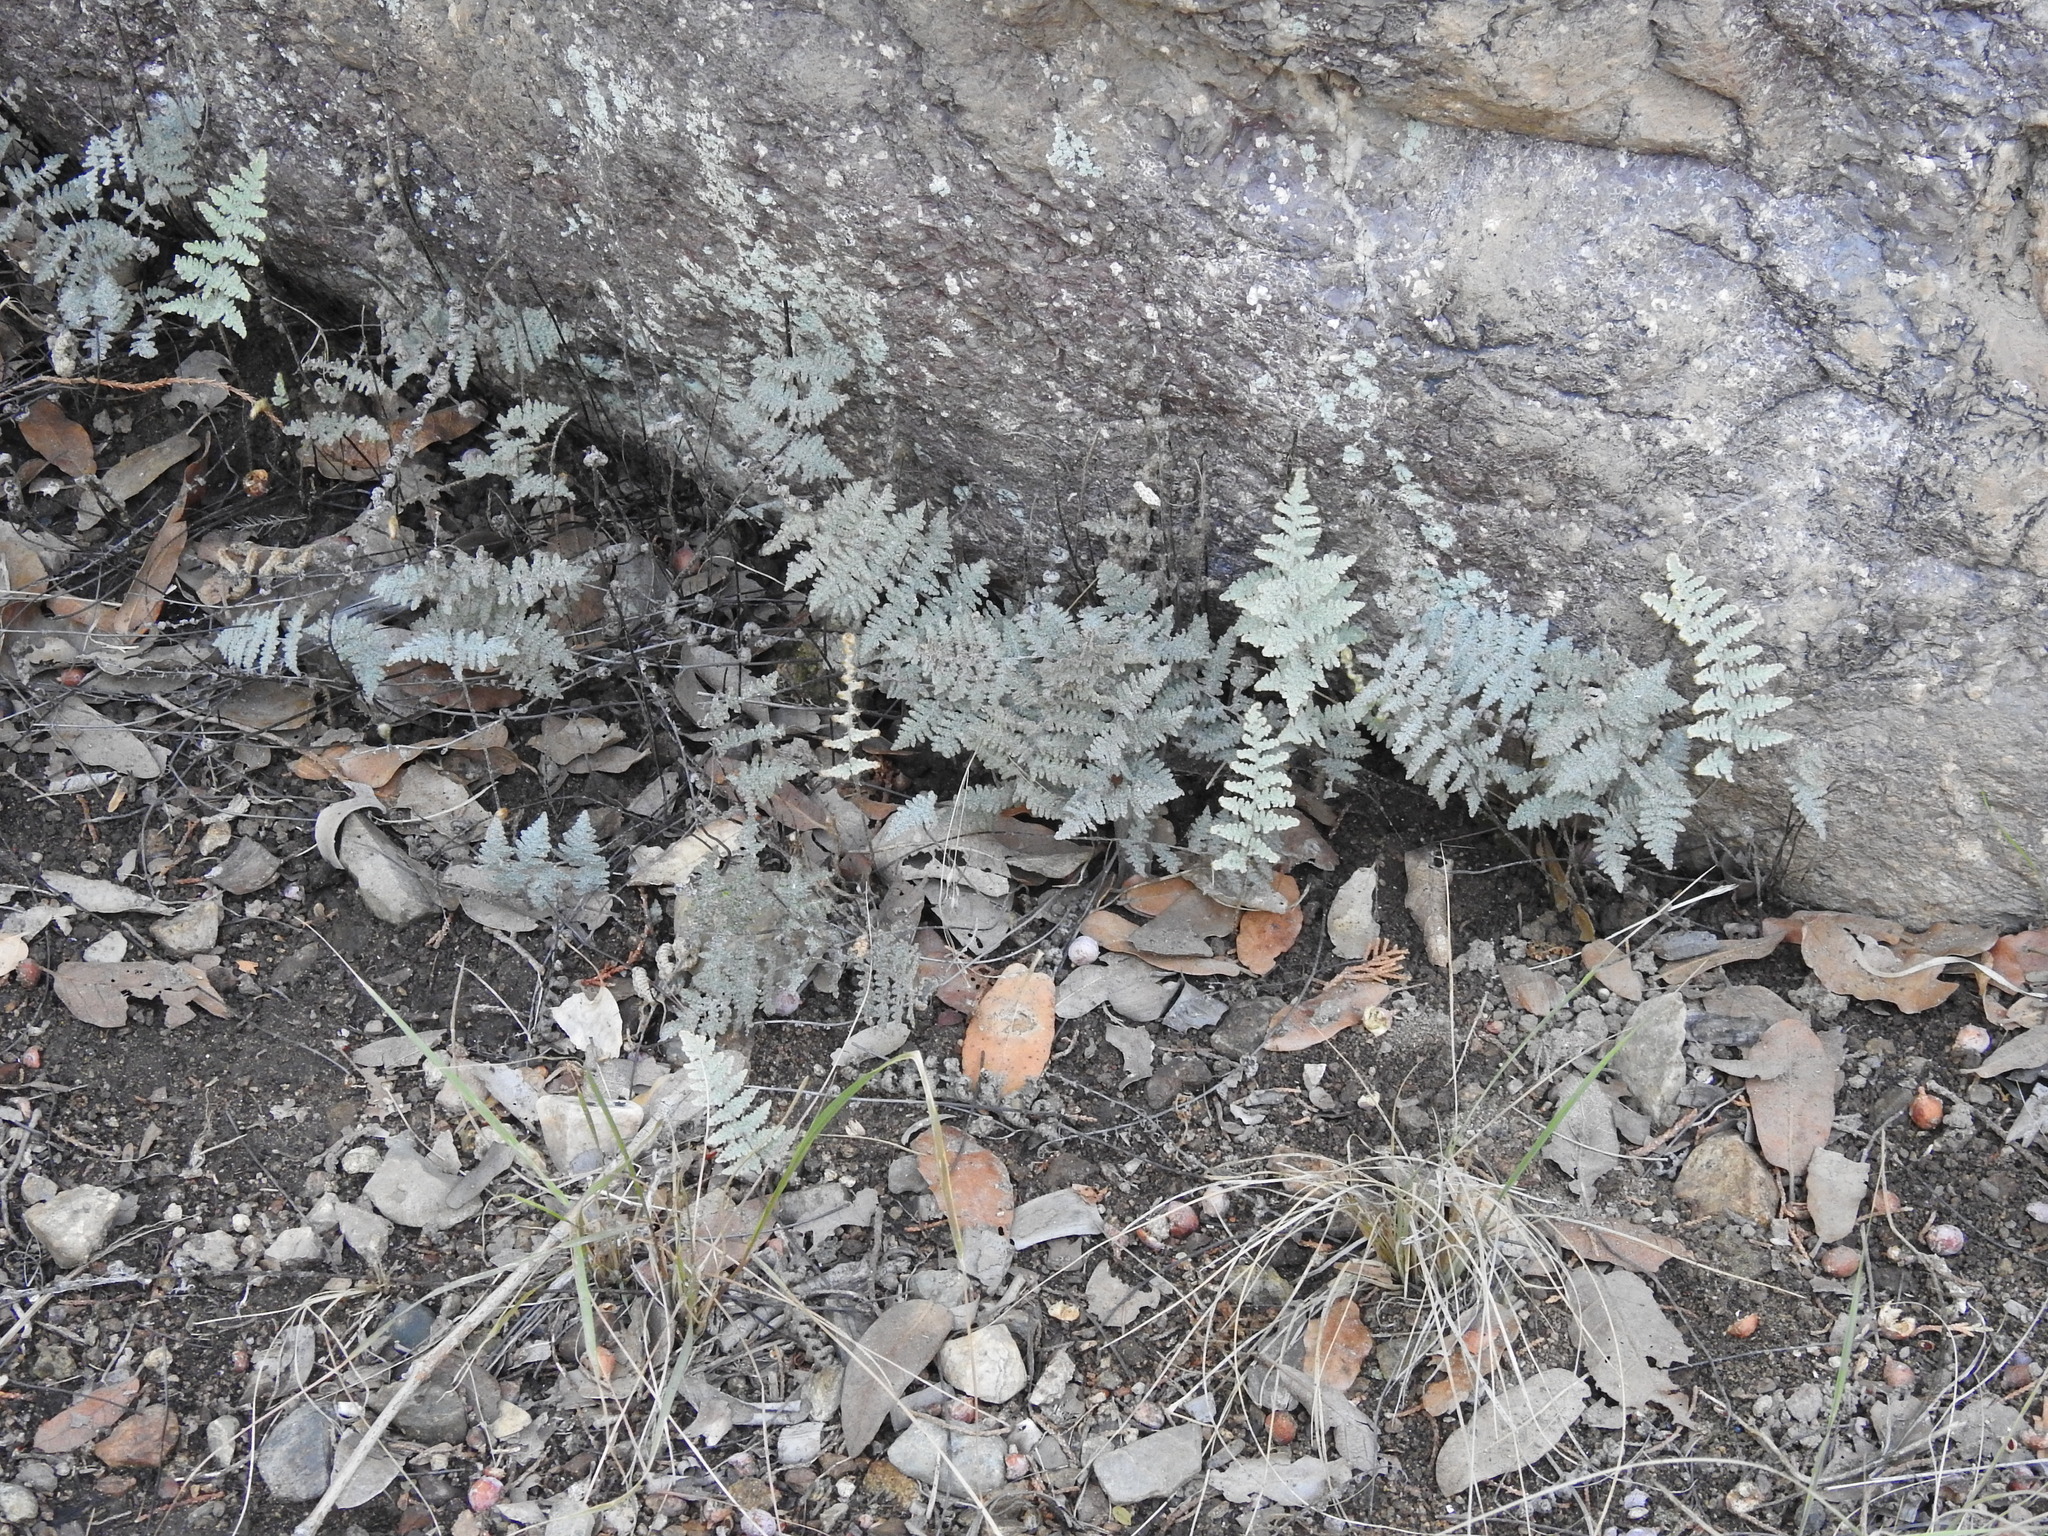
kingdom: Plantae
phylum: Tracheophyta
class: Polypodiopsida
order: Polypodiales
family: Pteridaceae
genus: Myriopteris
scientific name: Myriopteris lindheimeri
